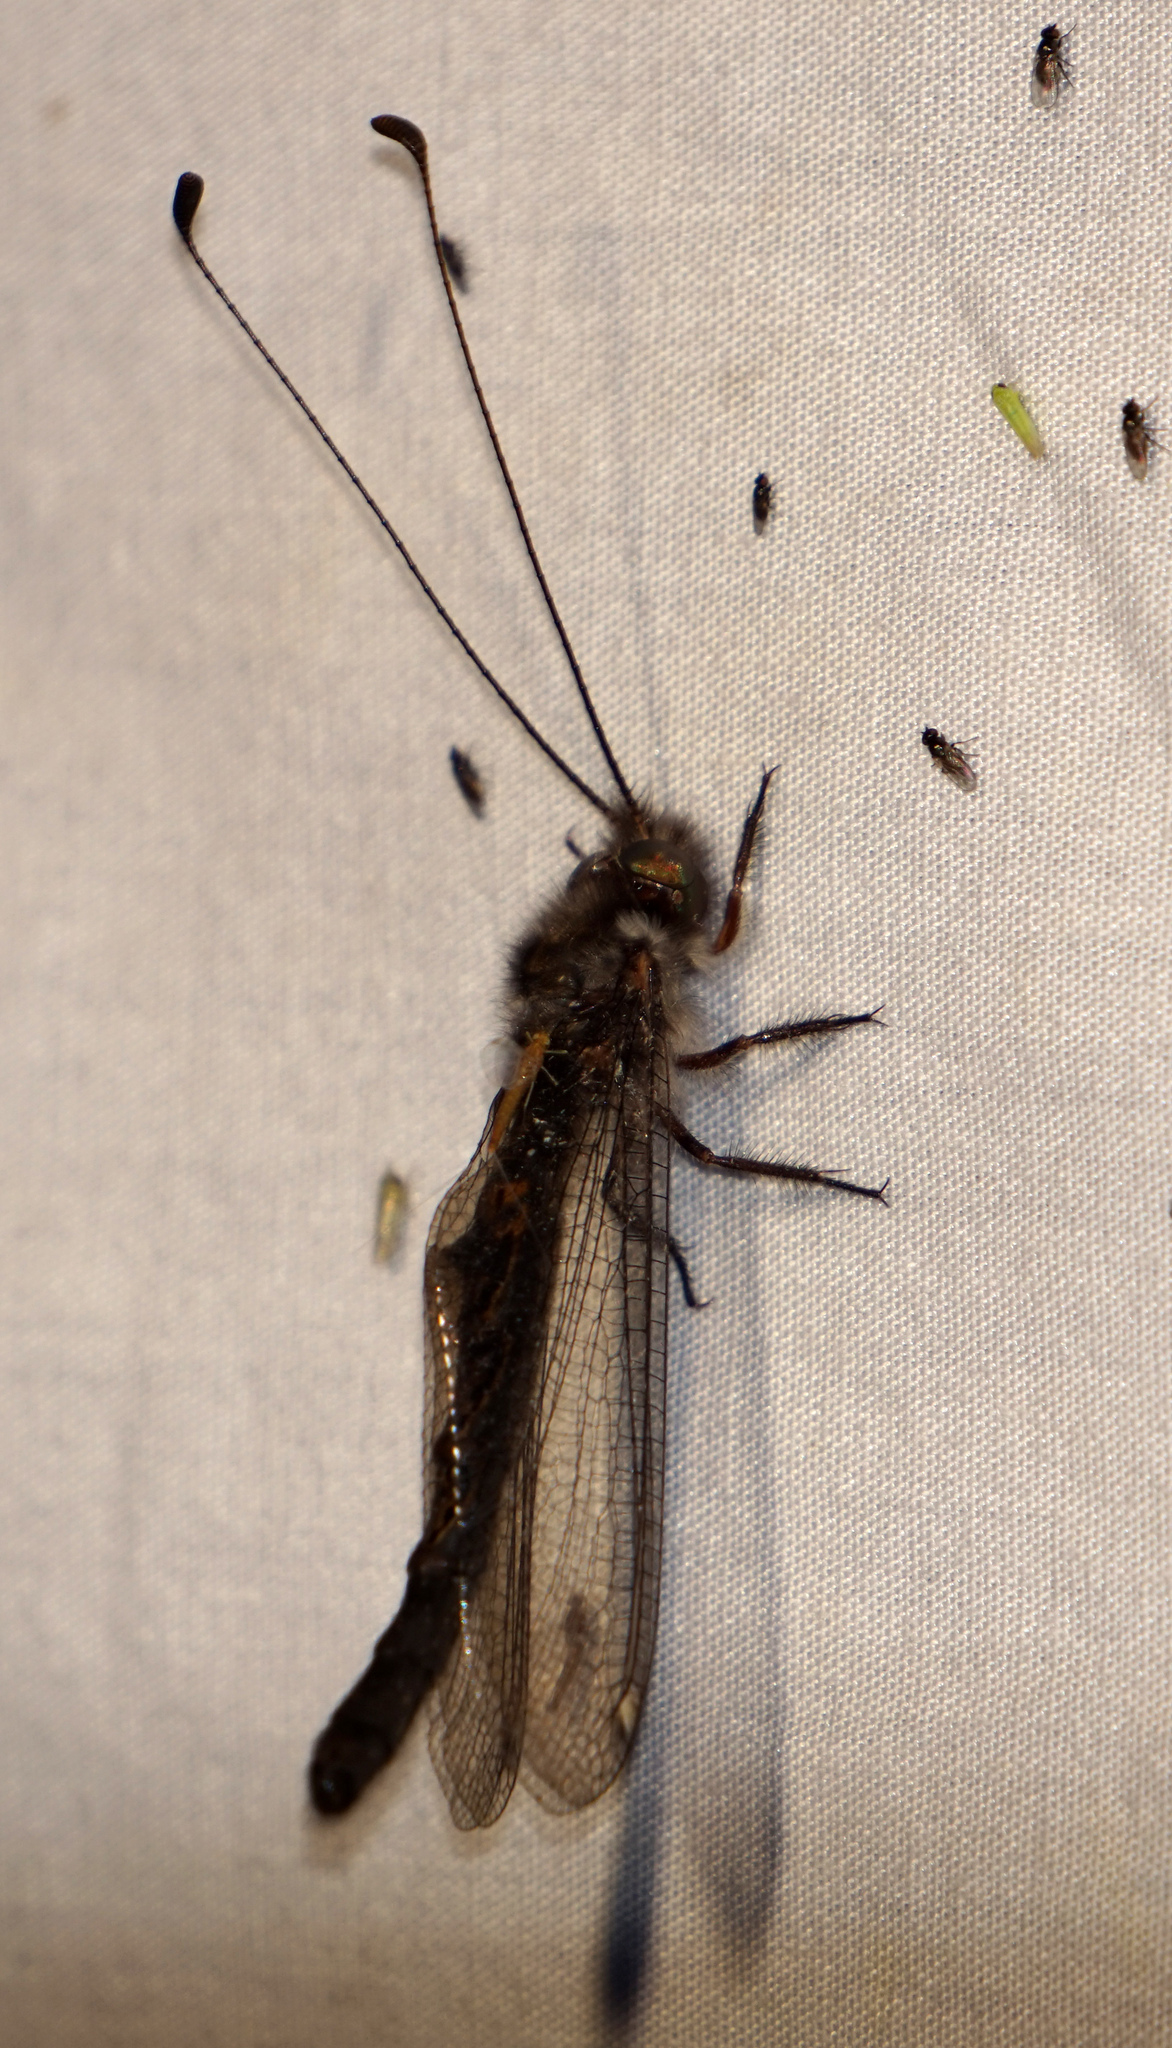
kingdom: Animalia
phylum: Arthropoda
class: Insecta
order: Neuroptera
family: Ascalaphidae
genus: Ululodes
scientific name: Ululodes quadripunctatus
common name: Four-spotted owlfly
